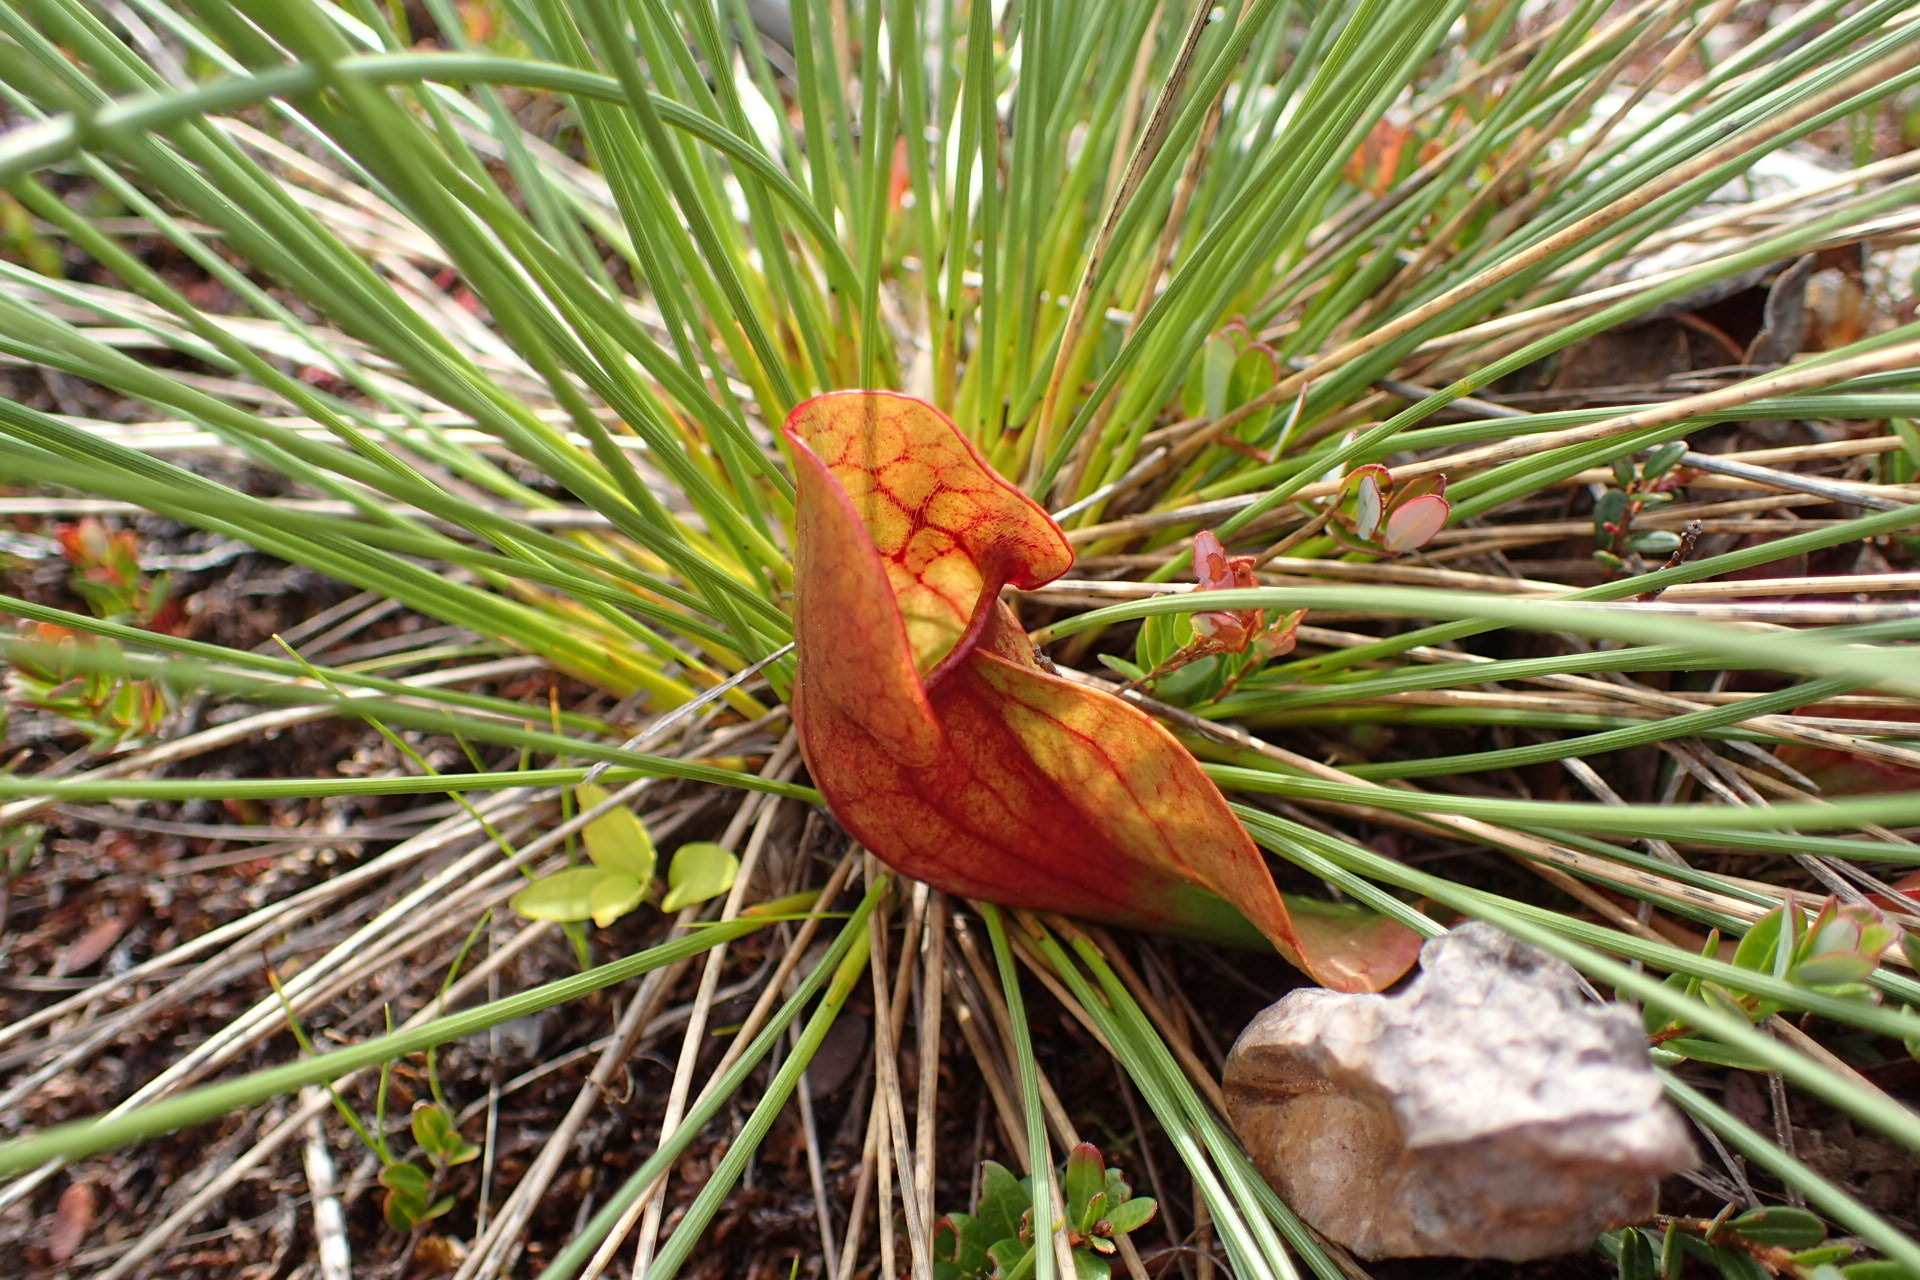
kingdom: Plantae
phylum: Tracheophyta
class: Magnoliopsida
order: Ericales
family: Sarraceniaceae
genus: Sarracenia
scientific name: Sarracenia purpurea
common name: Pitcherplant
